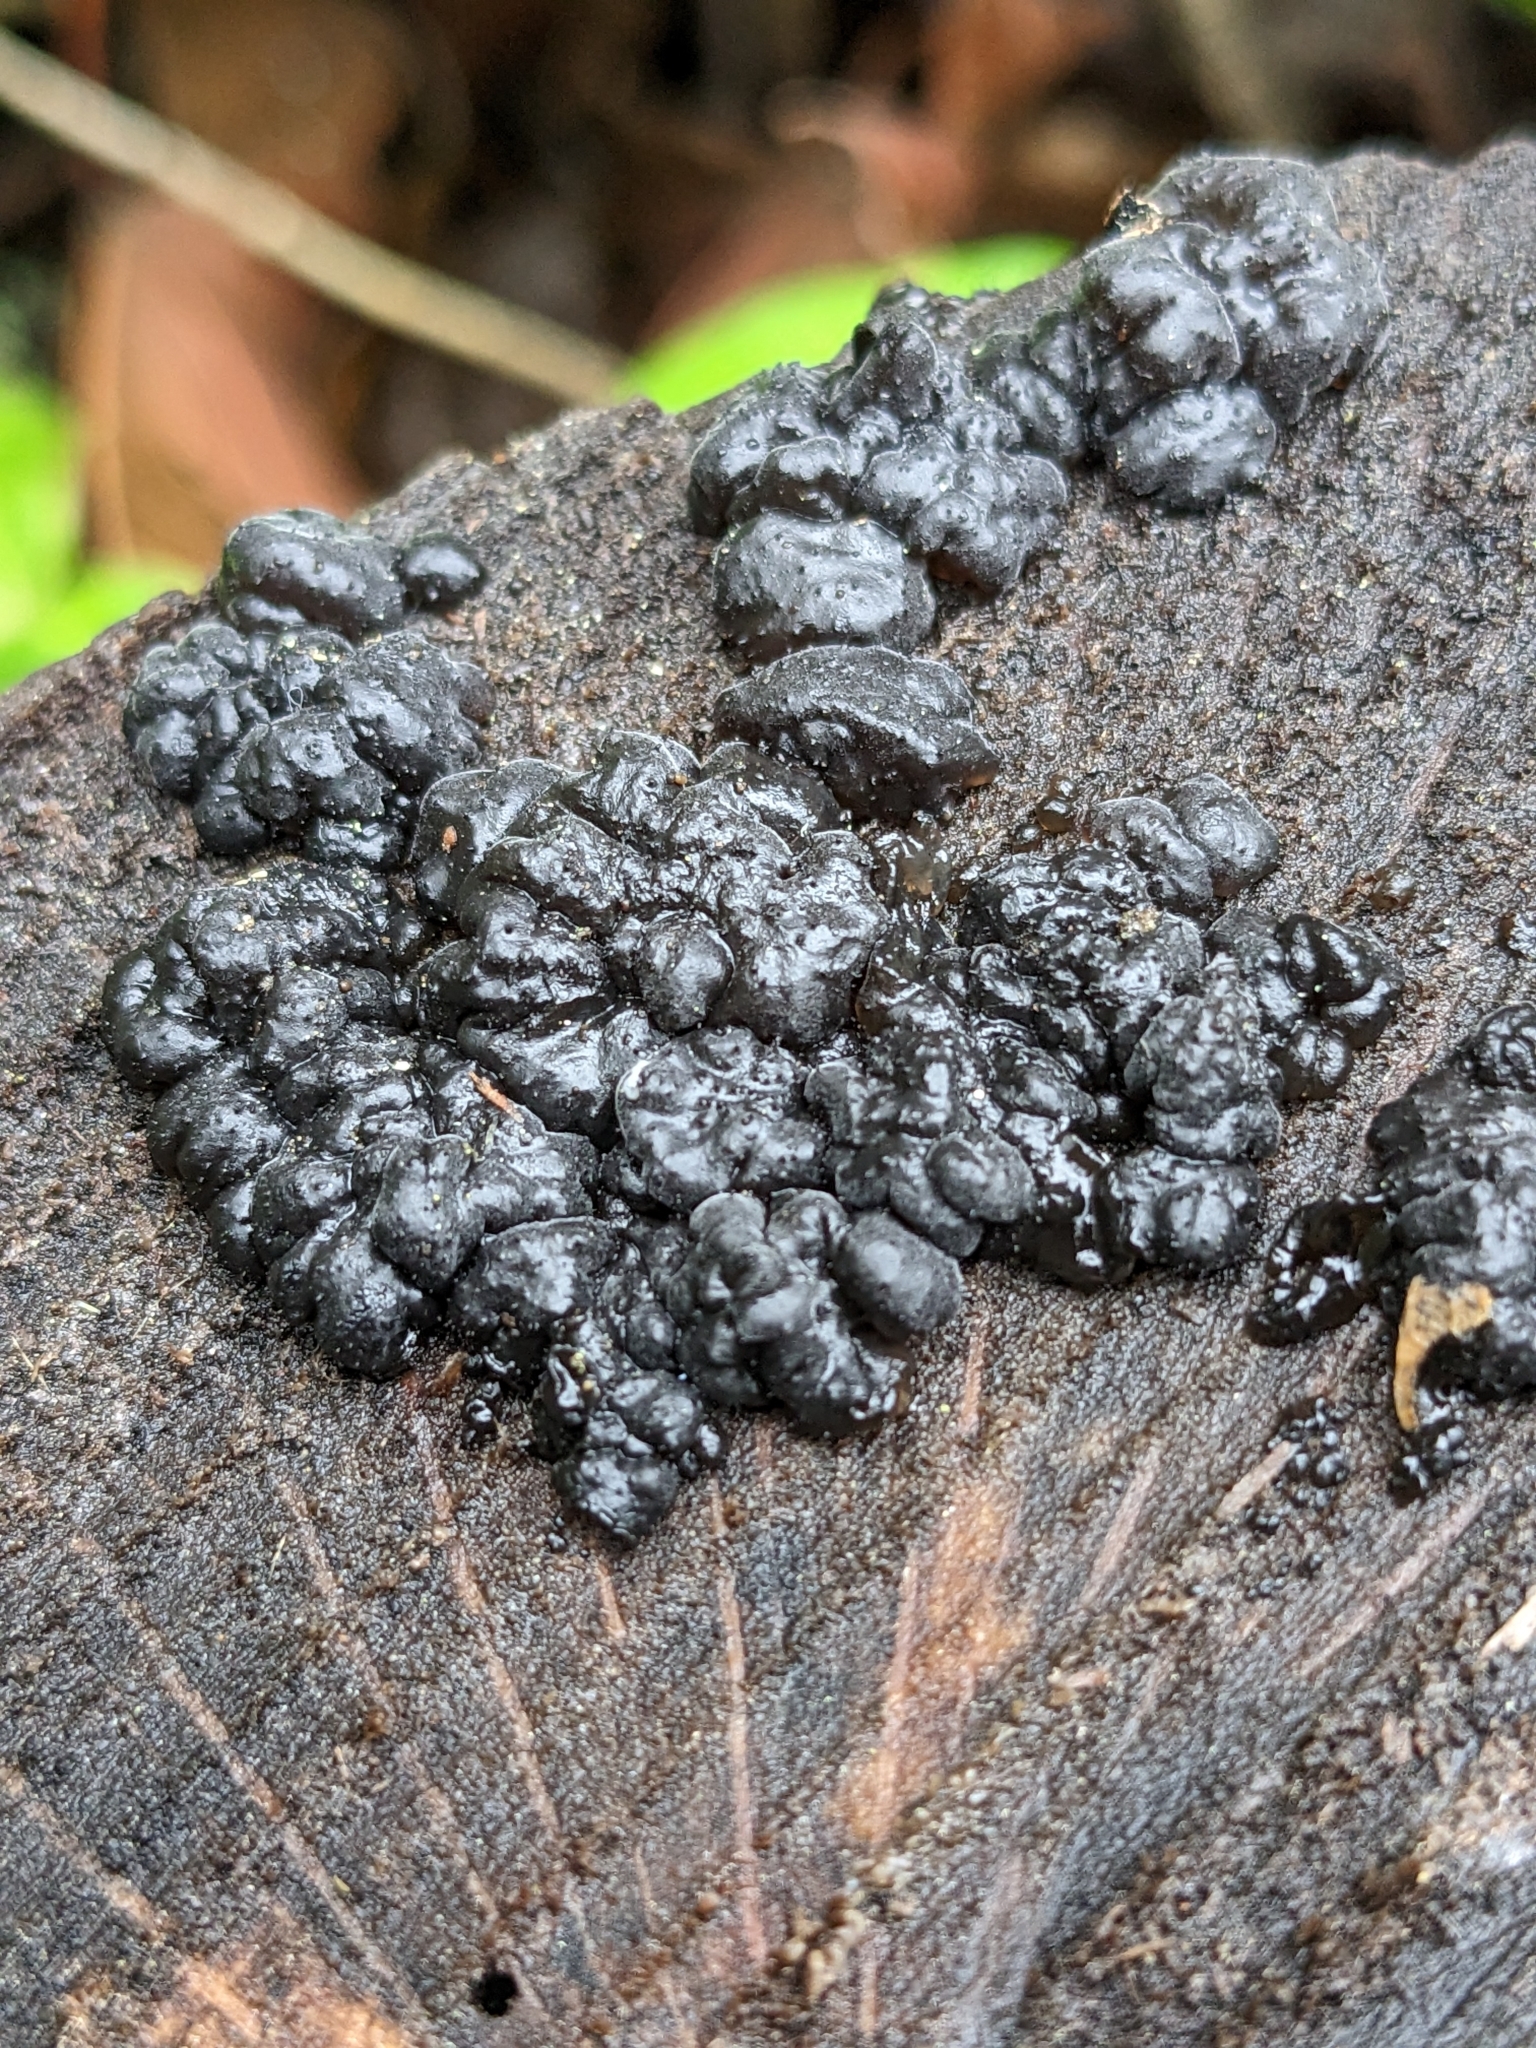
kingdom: Fungi
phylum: Basidiomycota
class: Agaricomycetes
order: Auriculariales
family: Auriculariaceae
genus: Exidia
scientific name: Exidia glandulosa
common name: Witches' butter
